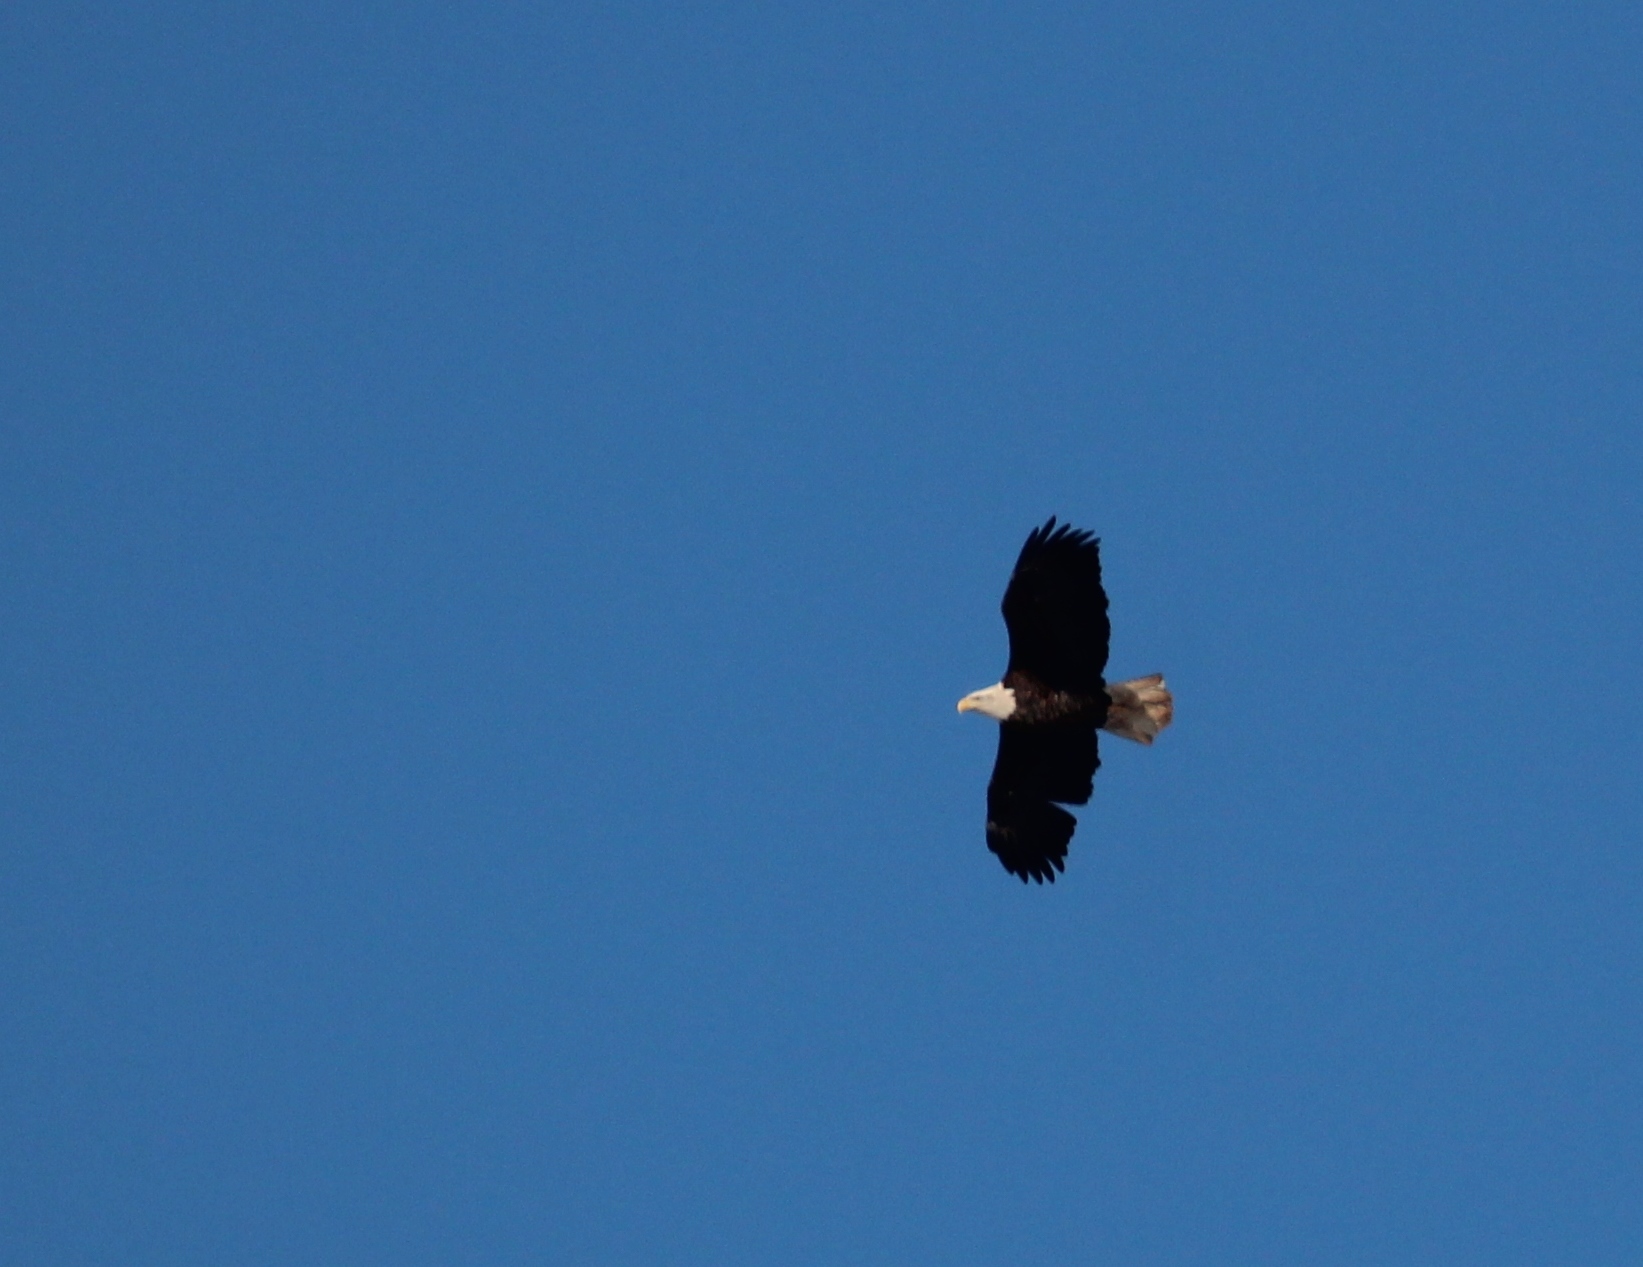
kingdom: Animalia
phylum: Chordata
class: Aves
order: Accipitriformes
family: Accipitridae
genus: Haliaeetus
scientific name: Haliaeetus leucocephalus
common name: Bald eagle
